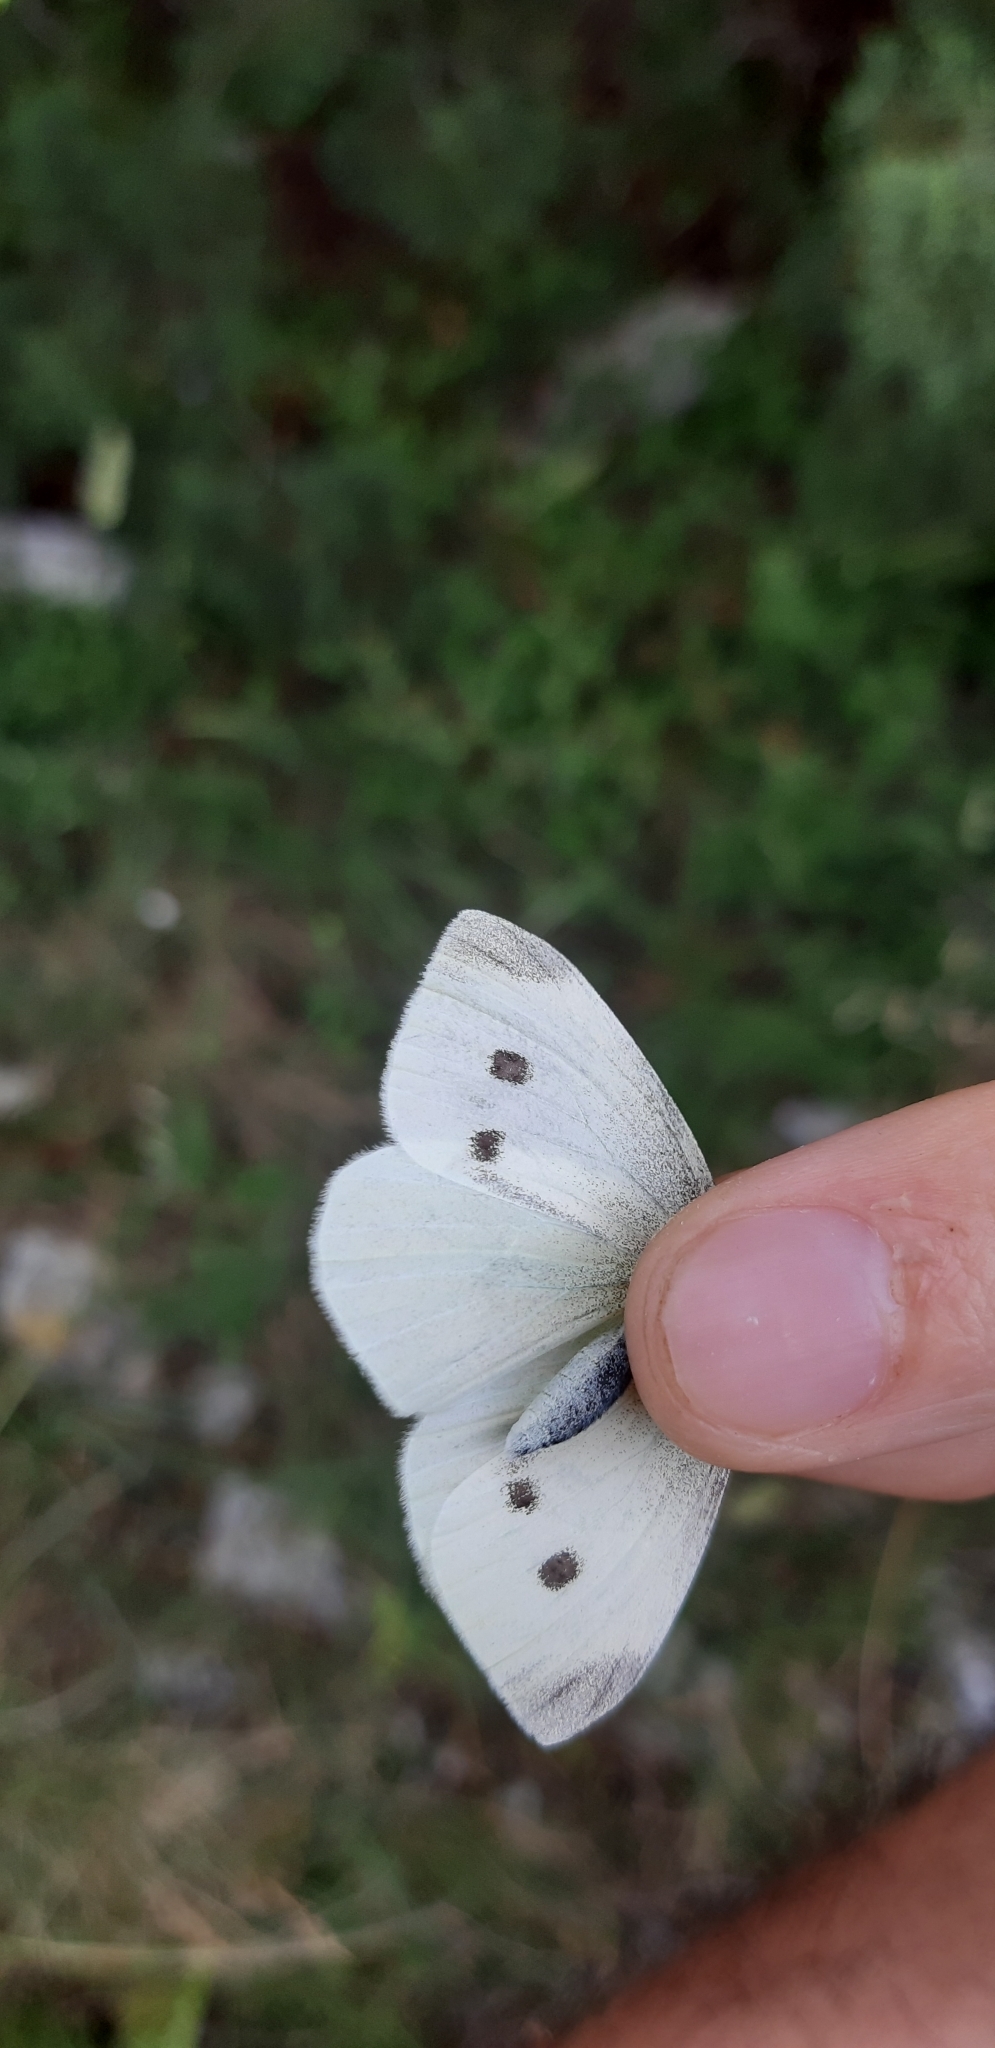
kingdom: Animalia
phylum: Arthropoda
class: Insecta
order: Lepidoptera
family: Pieridae
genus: Pieris
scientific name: Pieris rapae
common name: Small white
